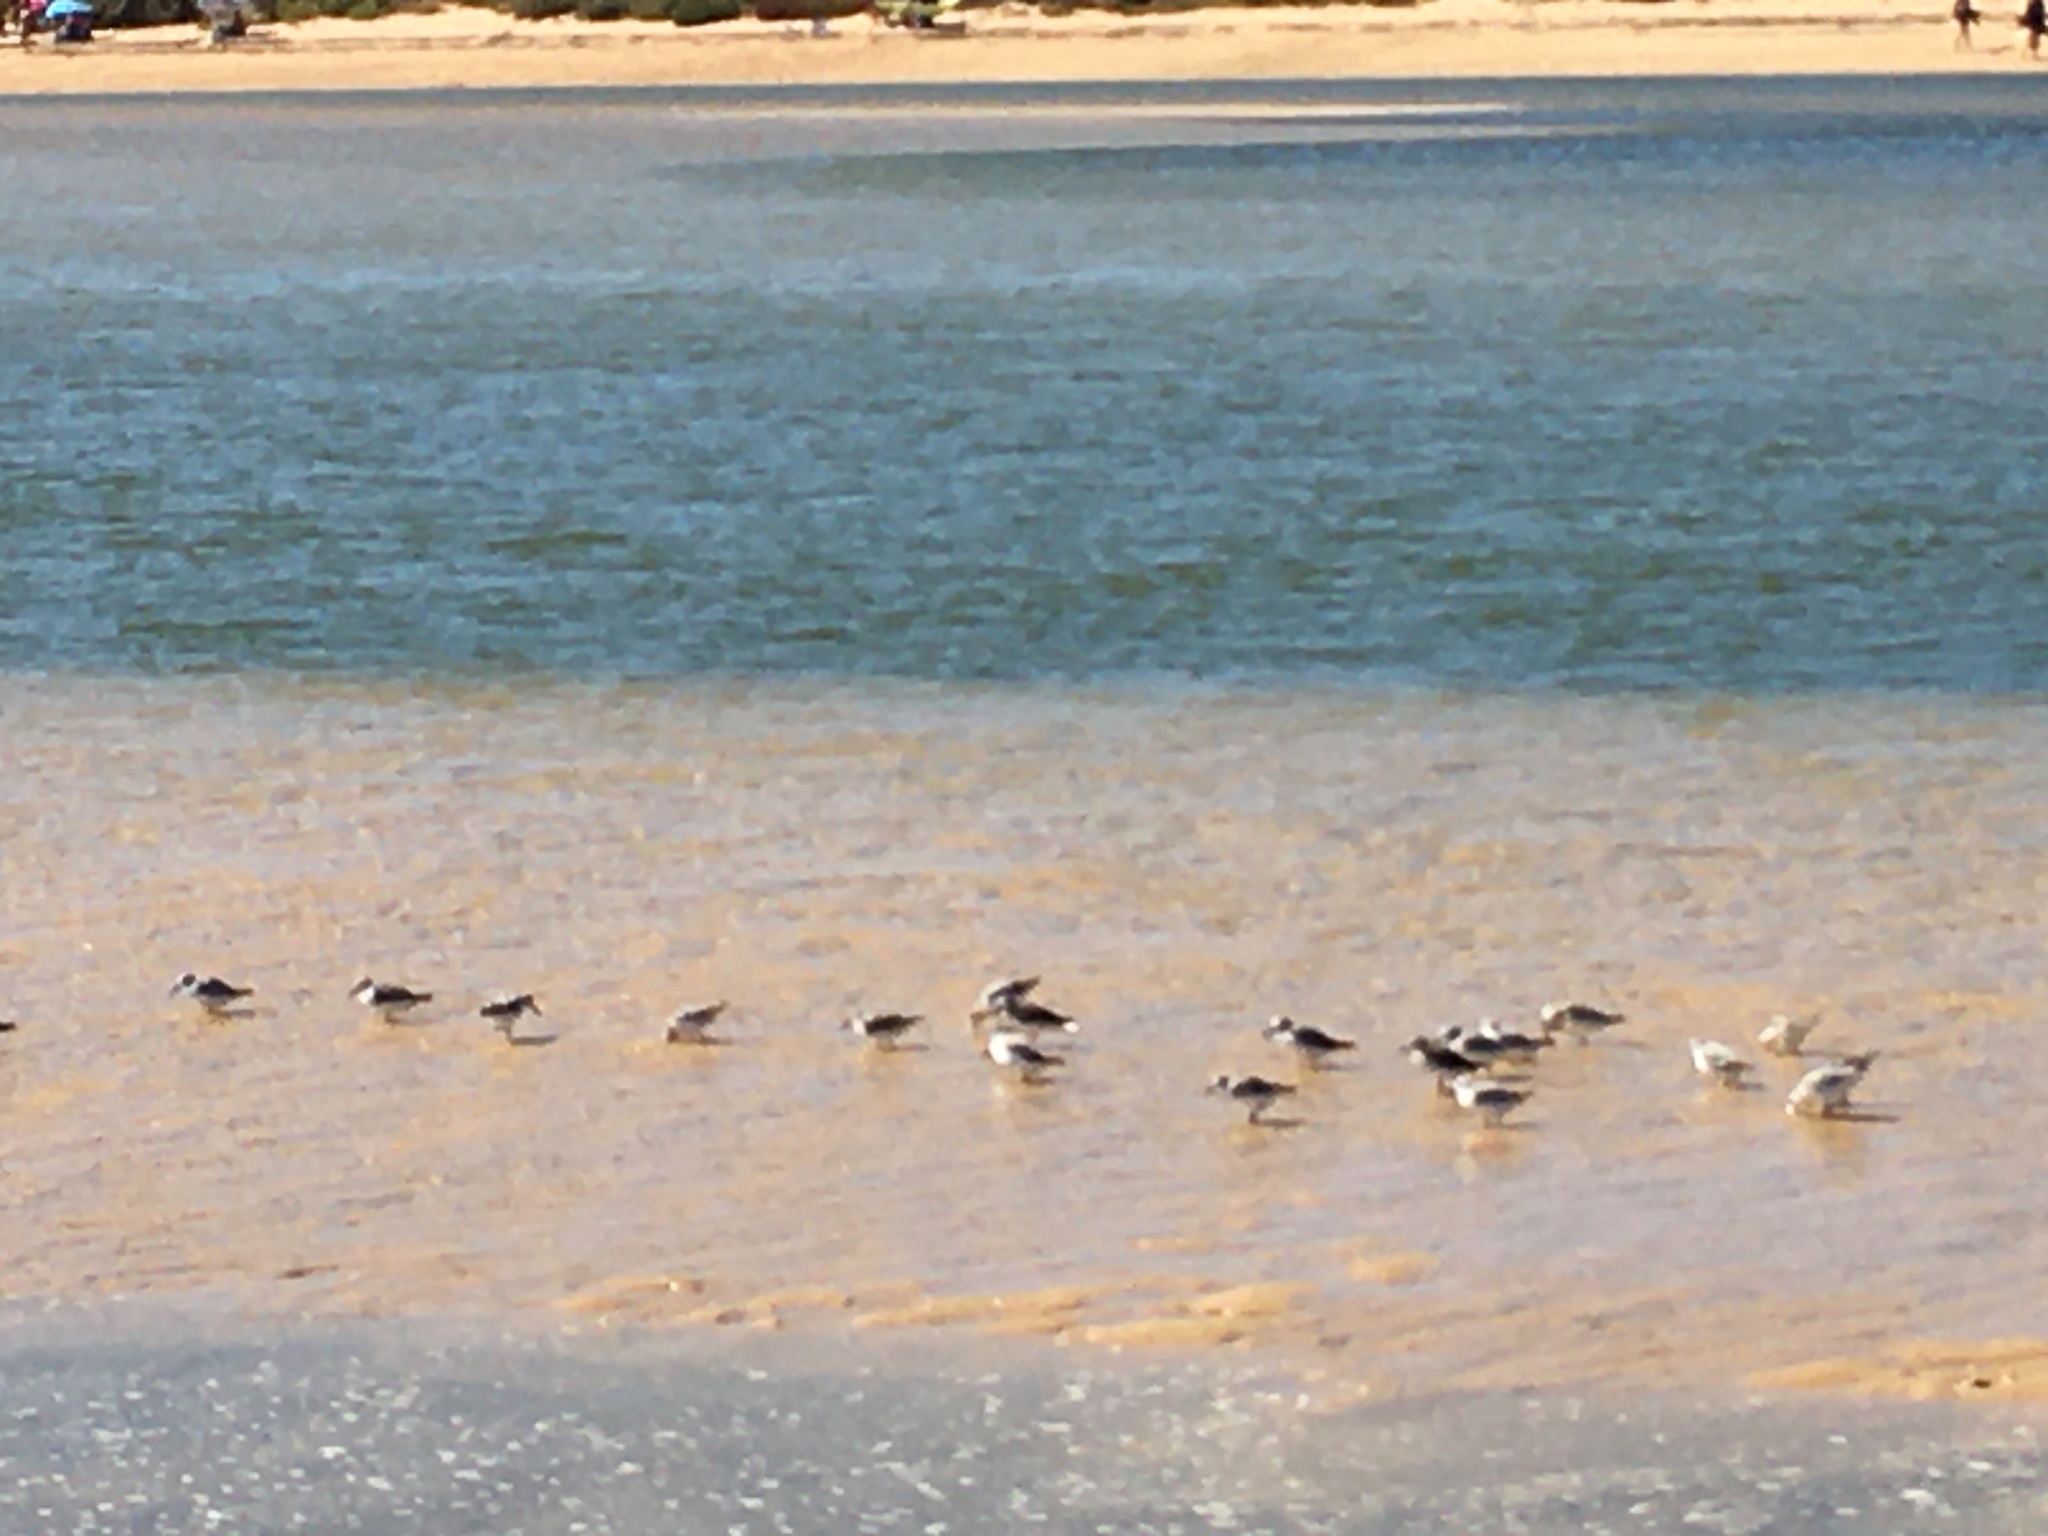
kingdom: Animalia
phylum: Chordata
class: Aves
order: Charadriiformes
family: Scolopacidae
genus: Calidris
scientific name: Calidris alba
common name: Sanderling
